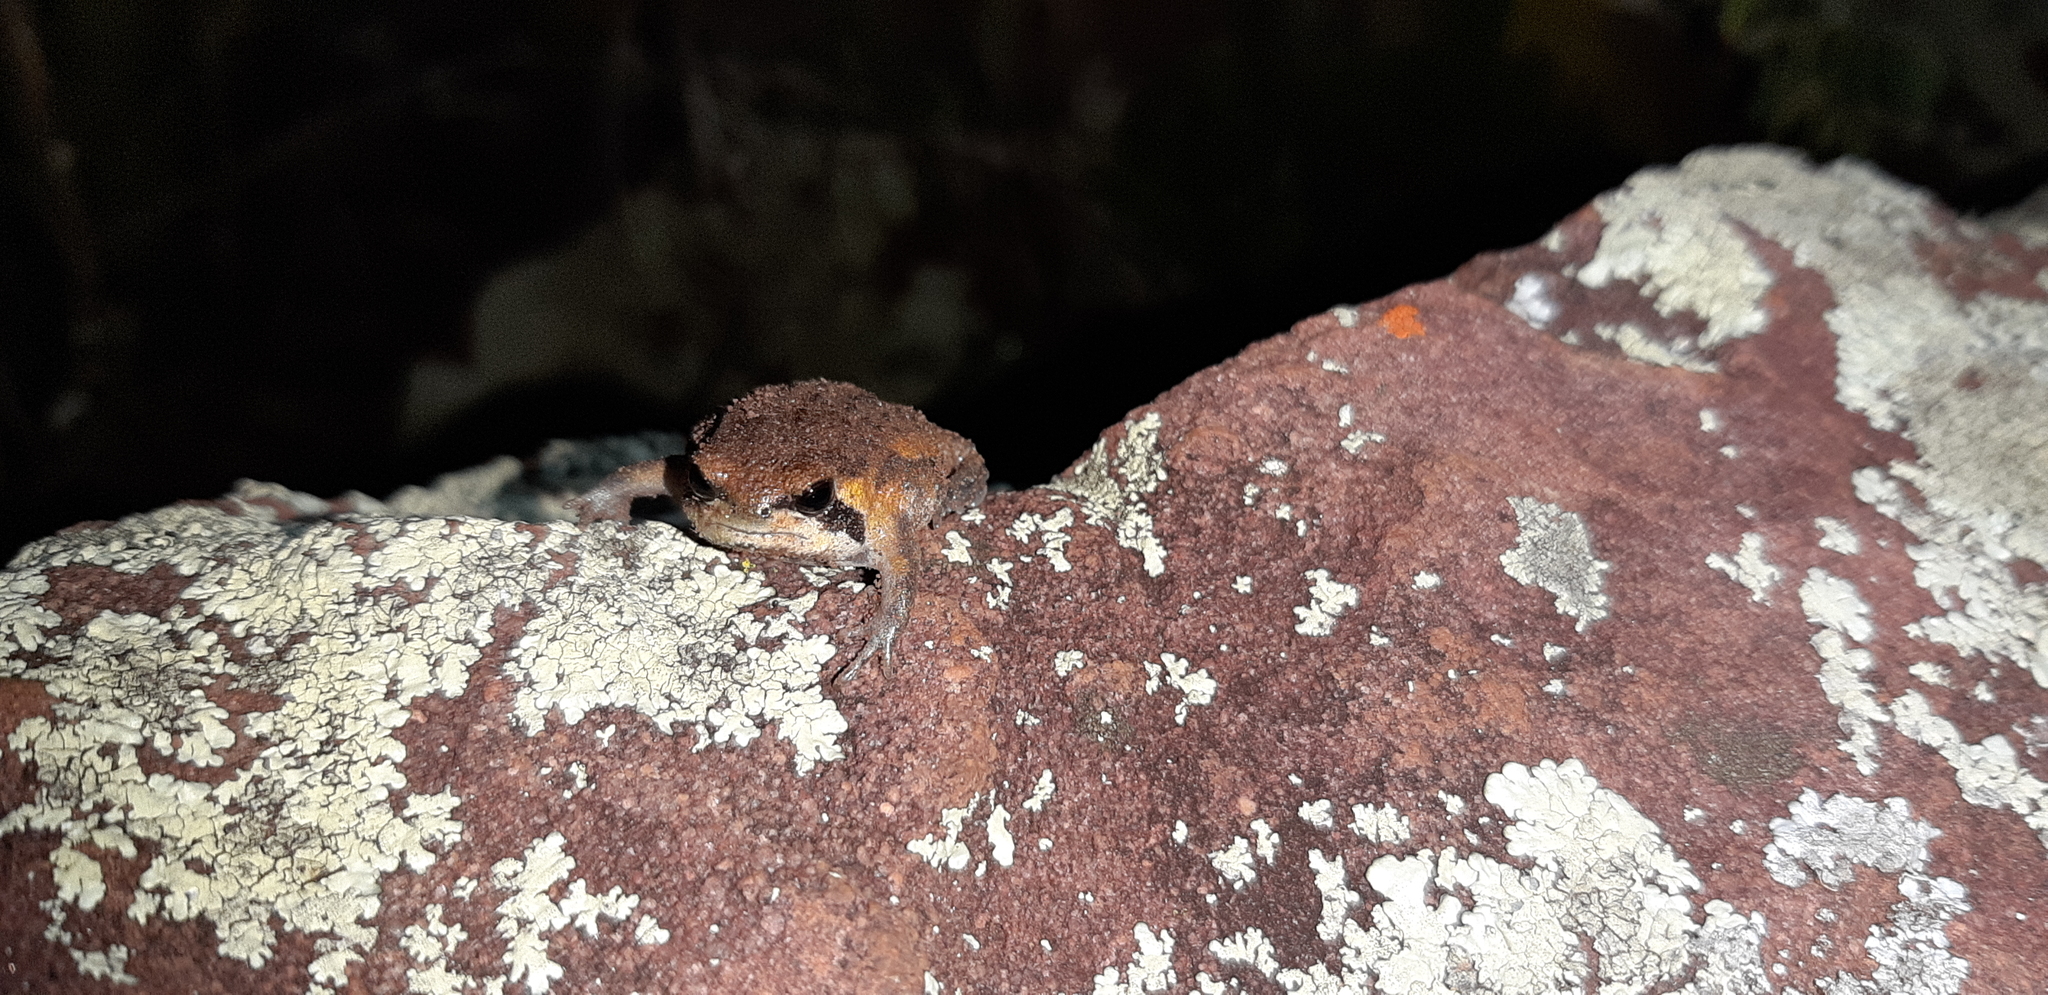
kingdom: Animalia
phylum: Chordata
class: Amphibia
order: Anura
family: Brevicipitidae
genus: Breviceps
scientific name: Breviceps mossambicus
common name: Mozambique rain frog
